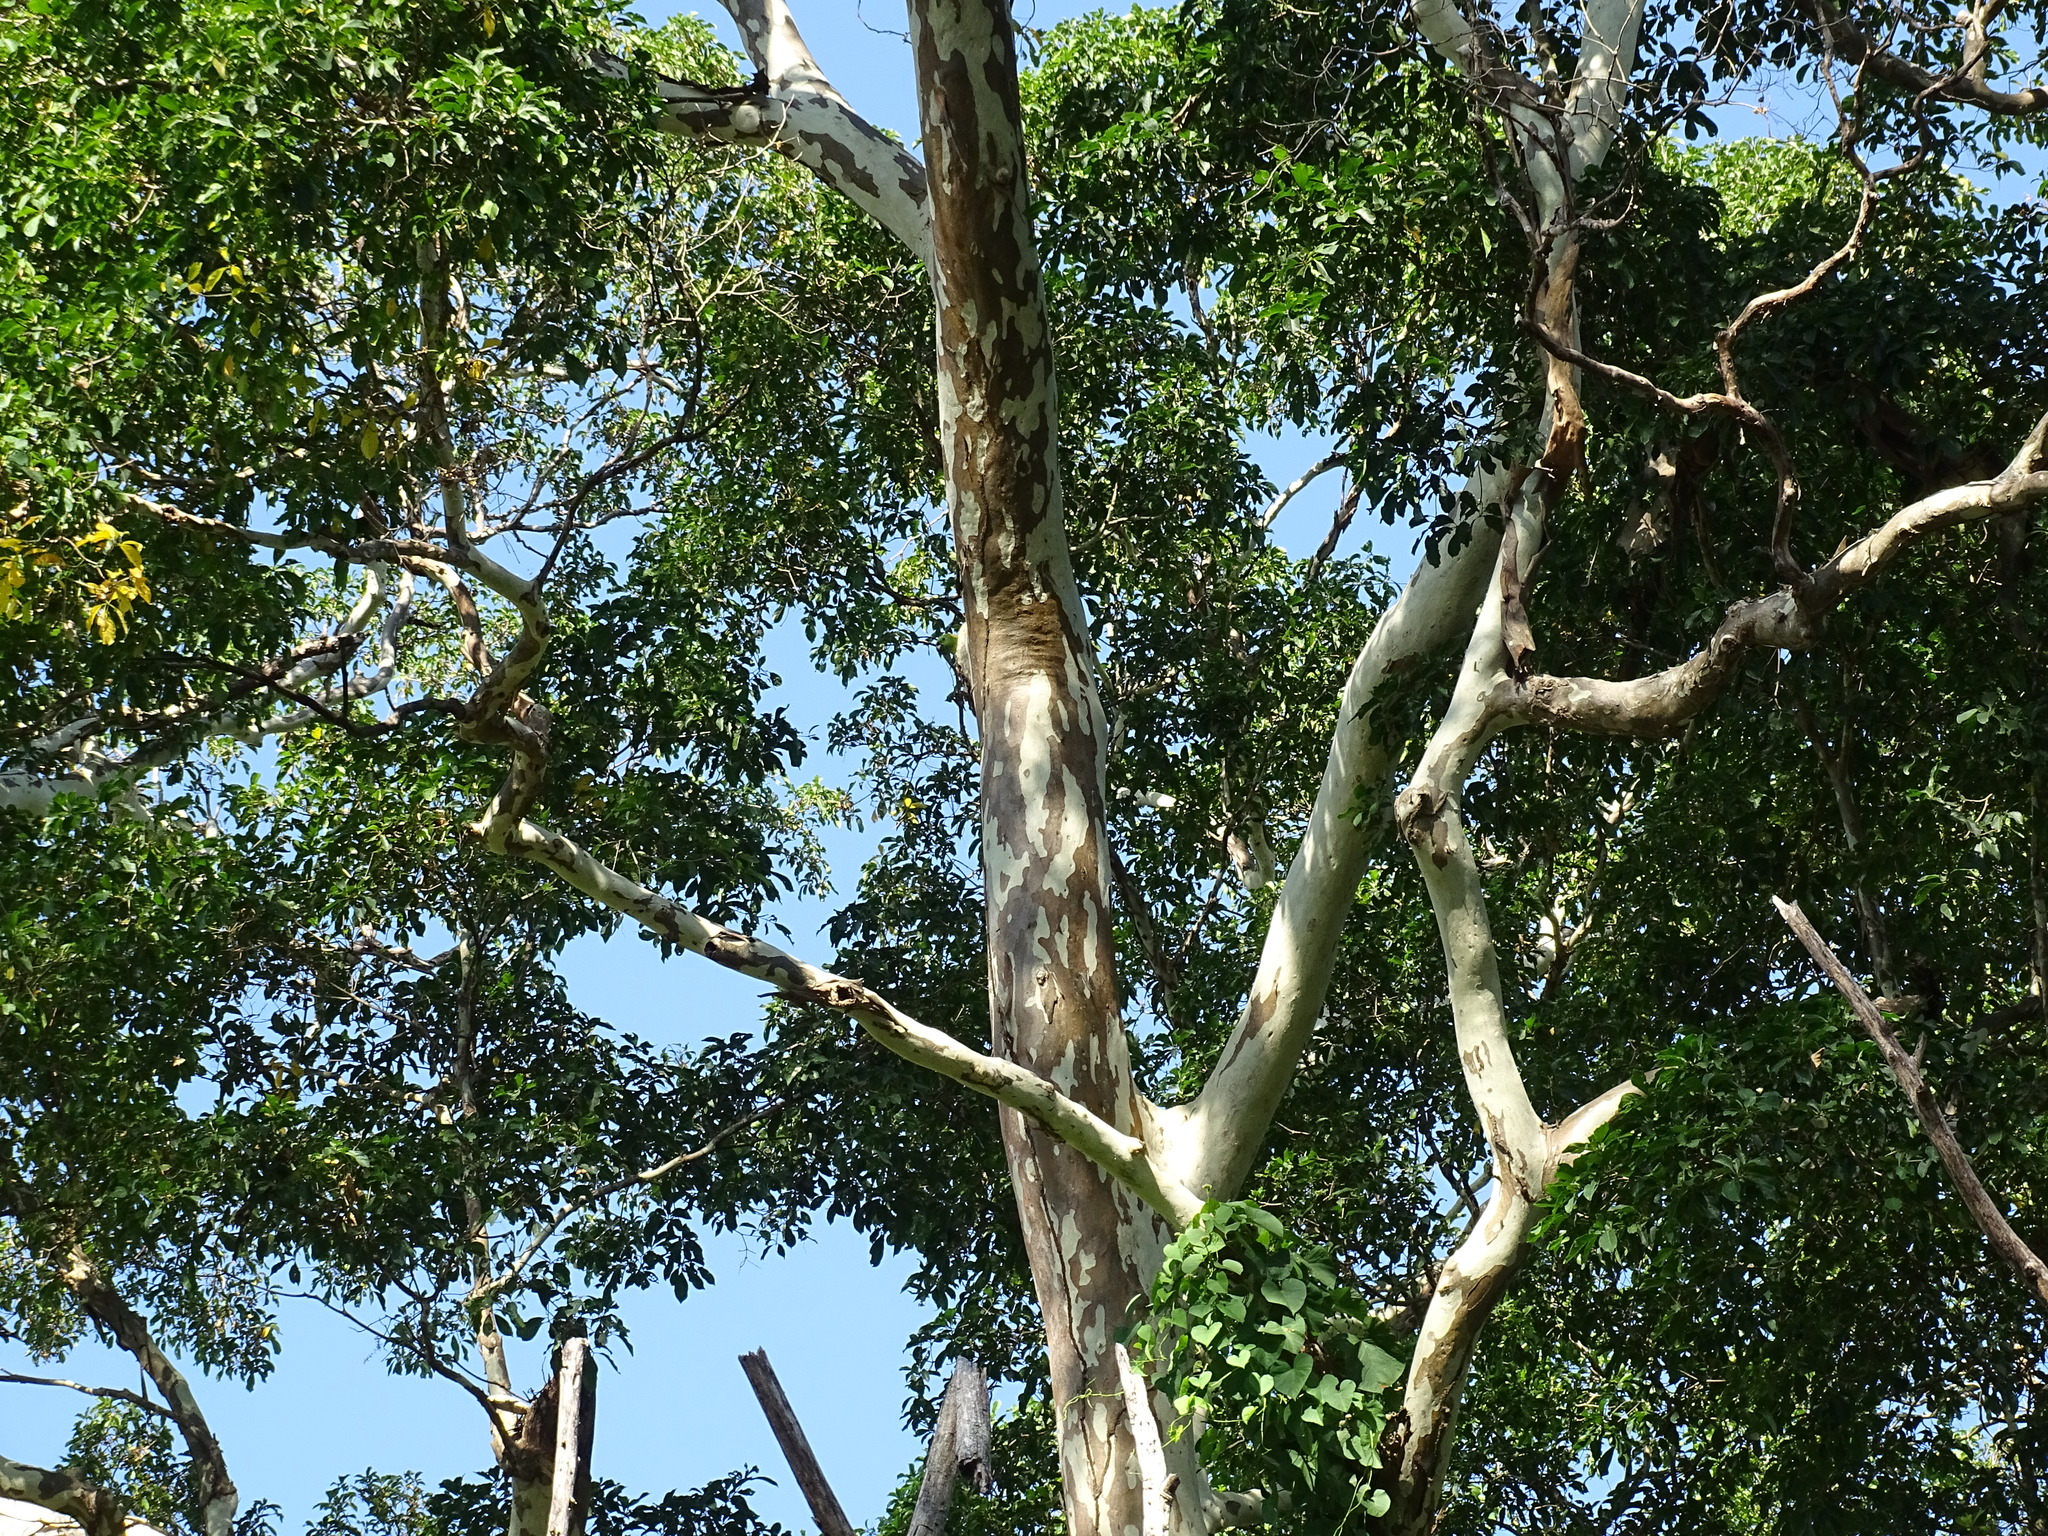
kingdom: Plantae
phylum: Tracheophyta
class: Magnoliopsida
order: Myrtales
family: Combretaceae
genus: Terminalia
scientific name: Terminalia oblonga
